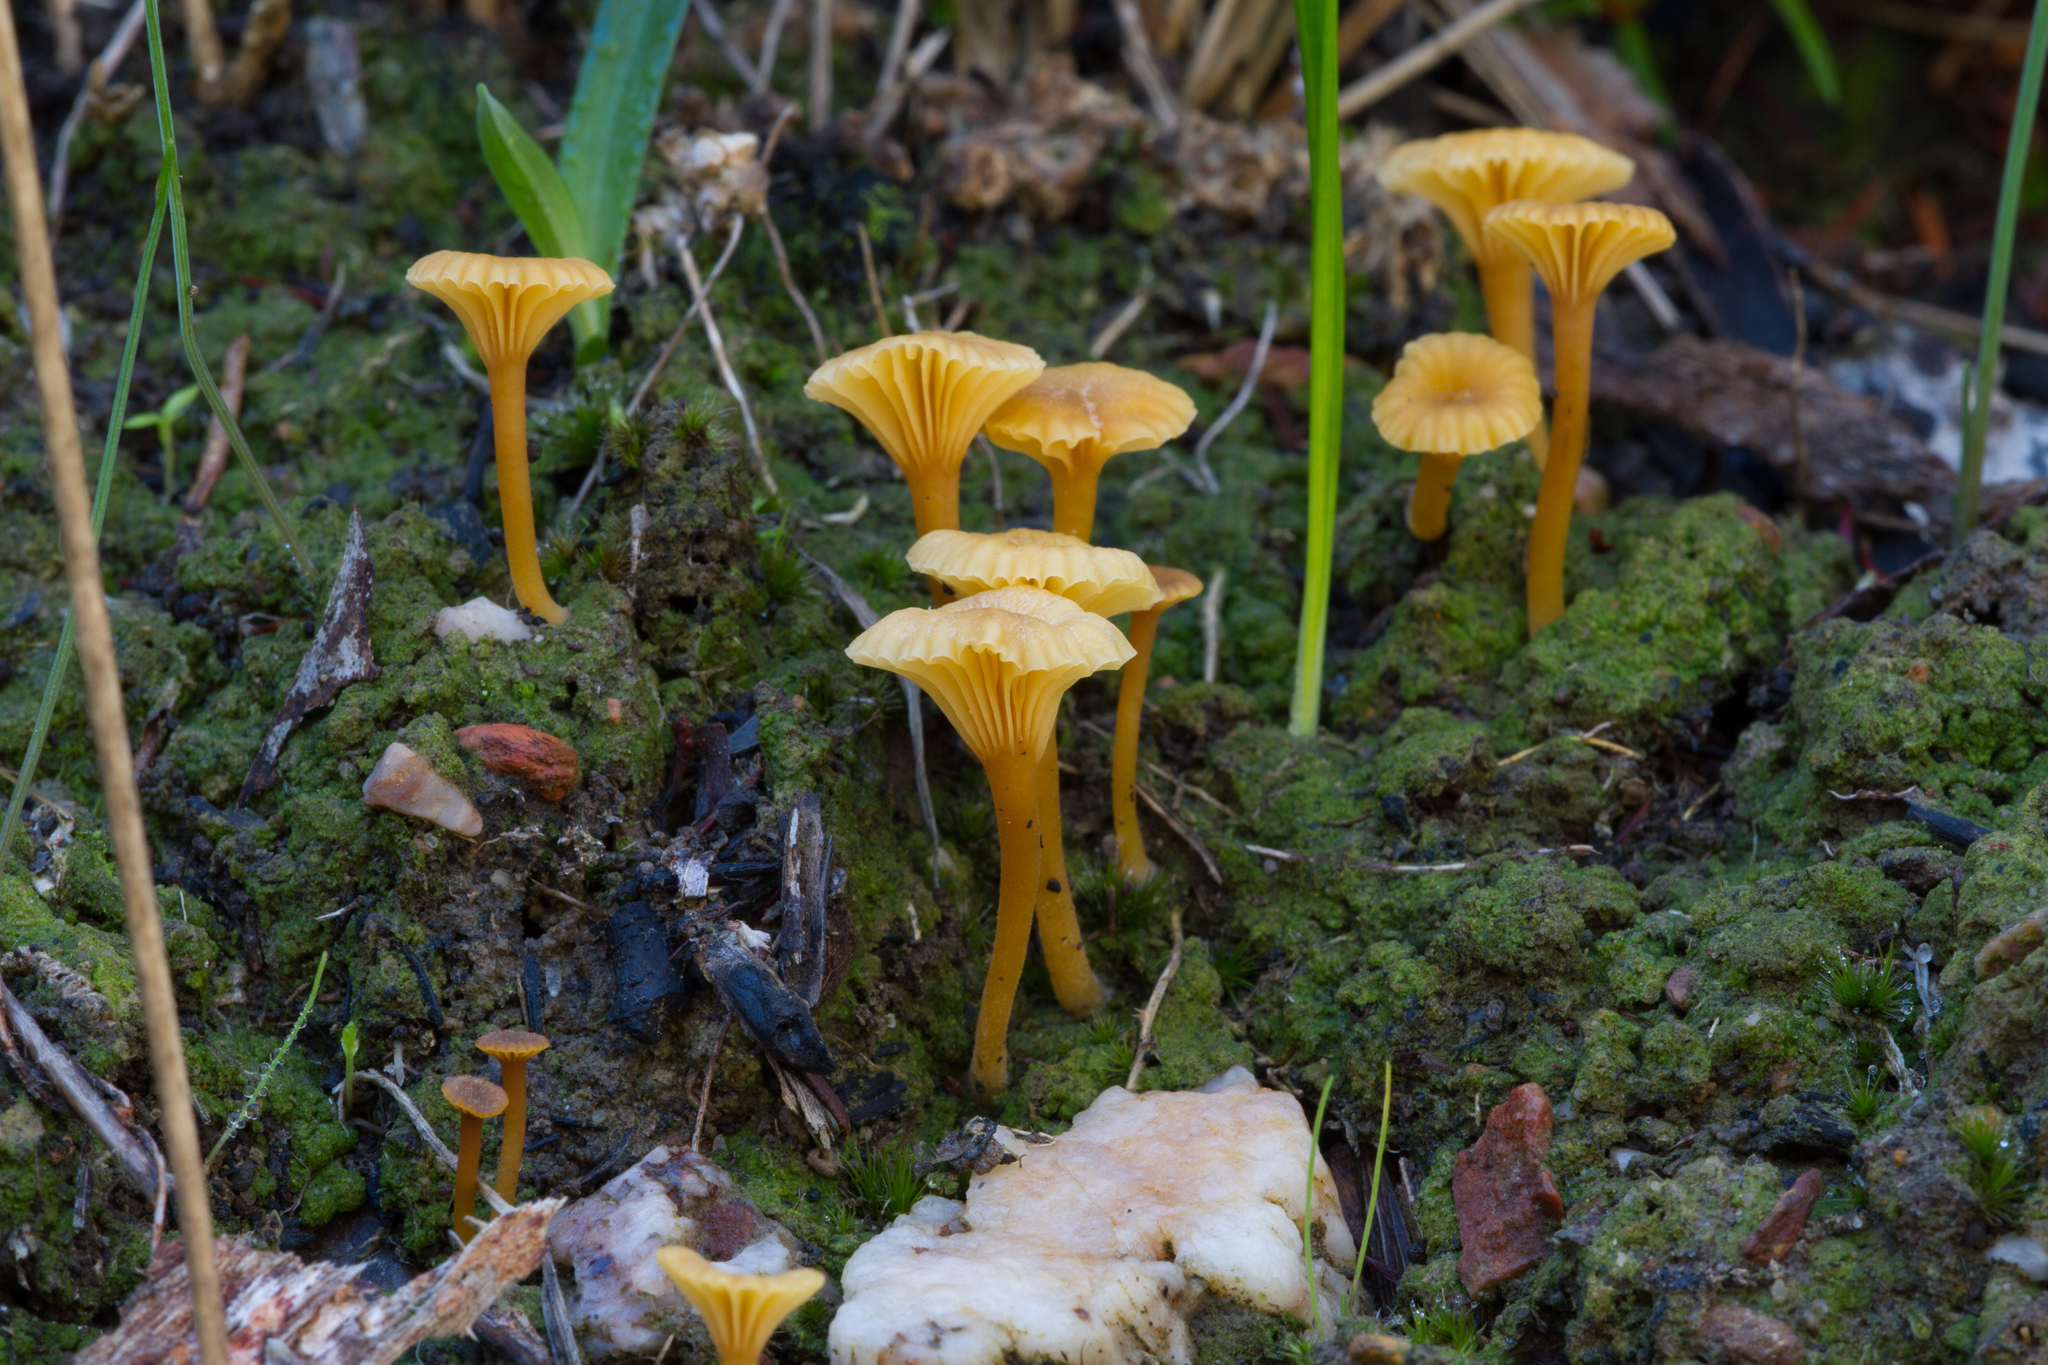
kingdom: Fungi
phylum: Basidiomycota
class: Agaricomycetes
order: Agaricales
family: Hygrophoraceae
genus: Lichenomphalia
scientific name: Lichenomphalia chromacea
